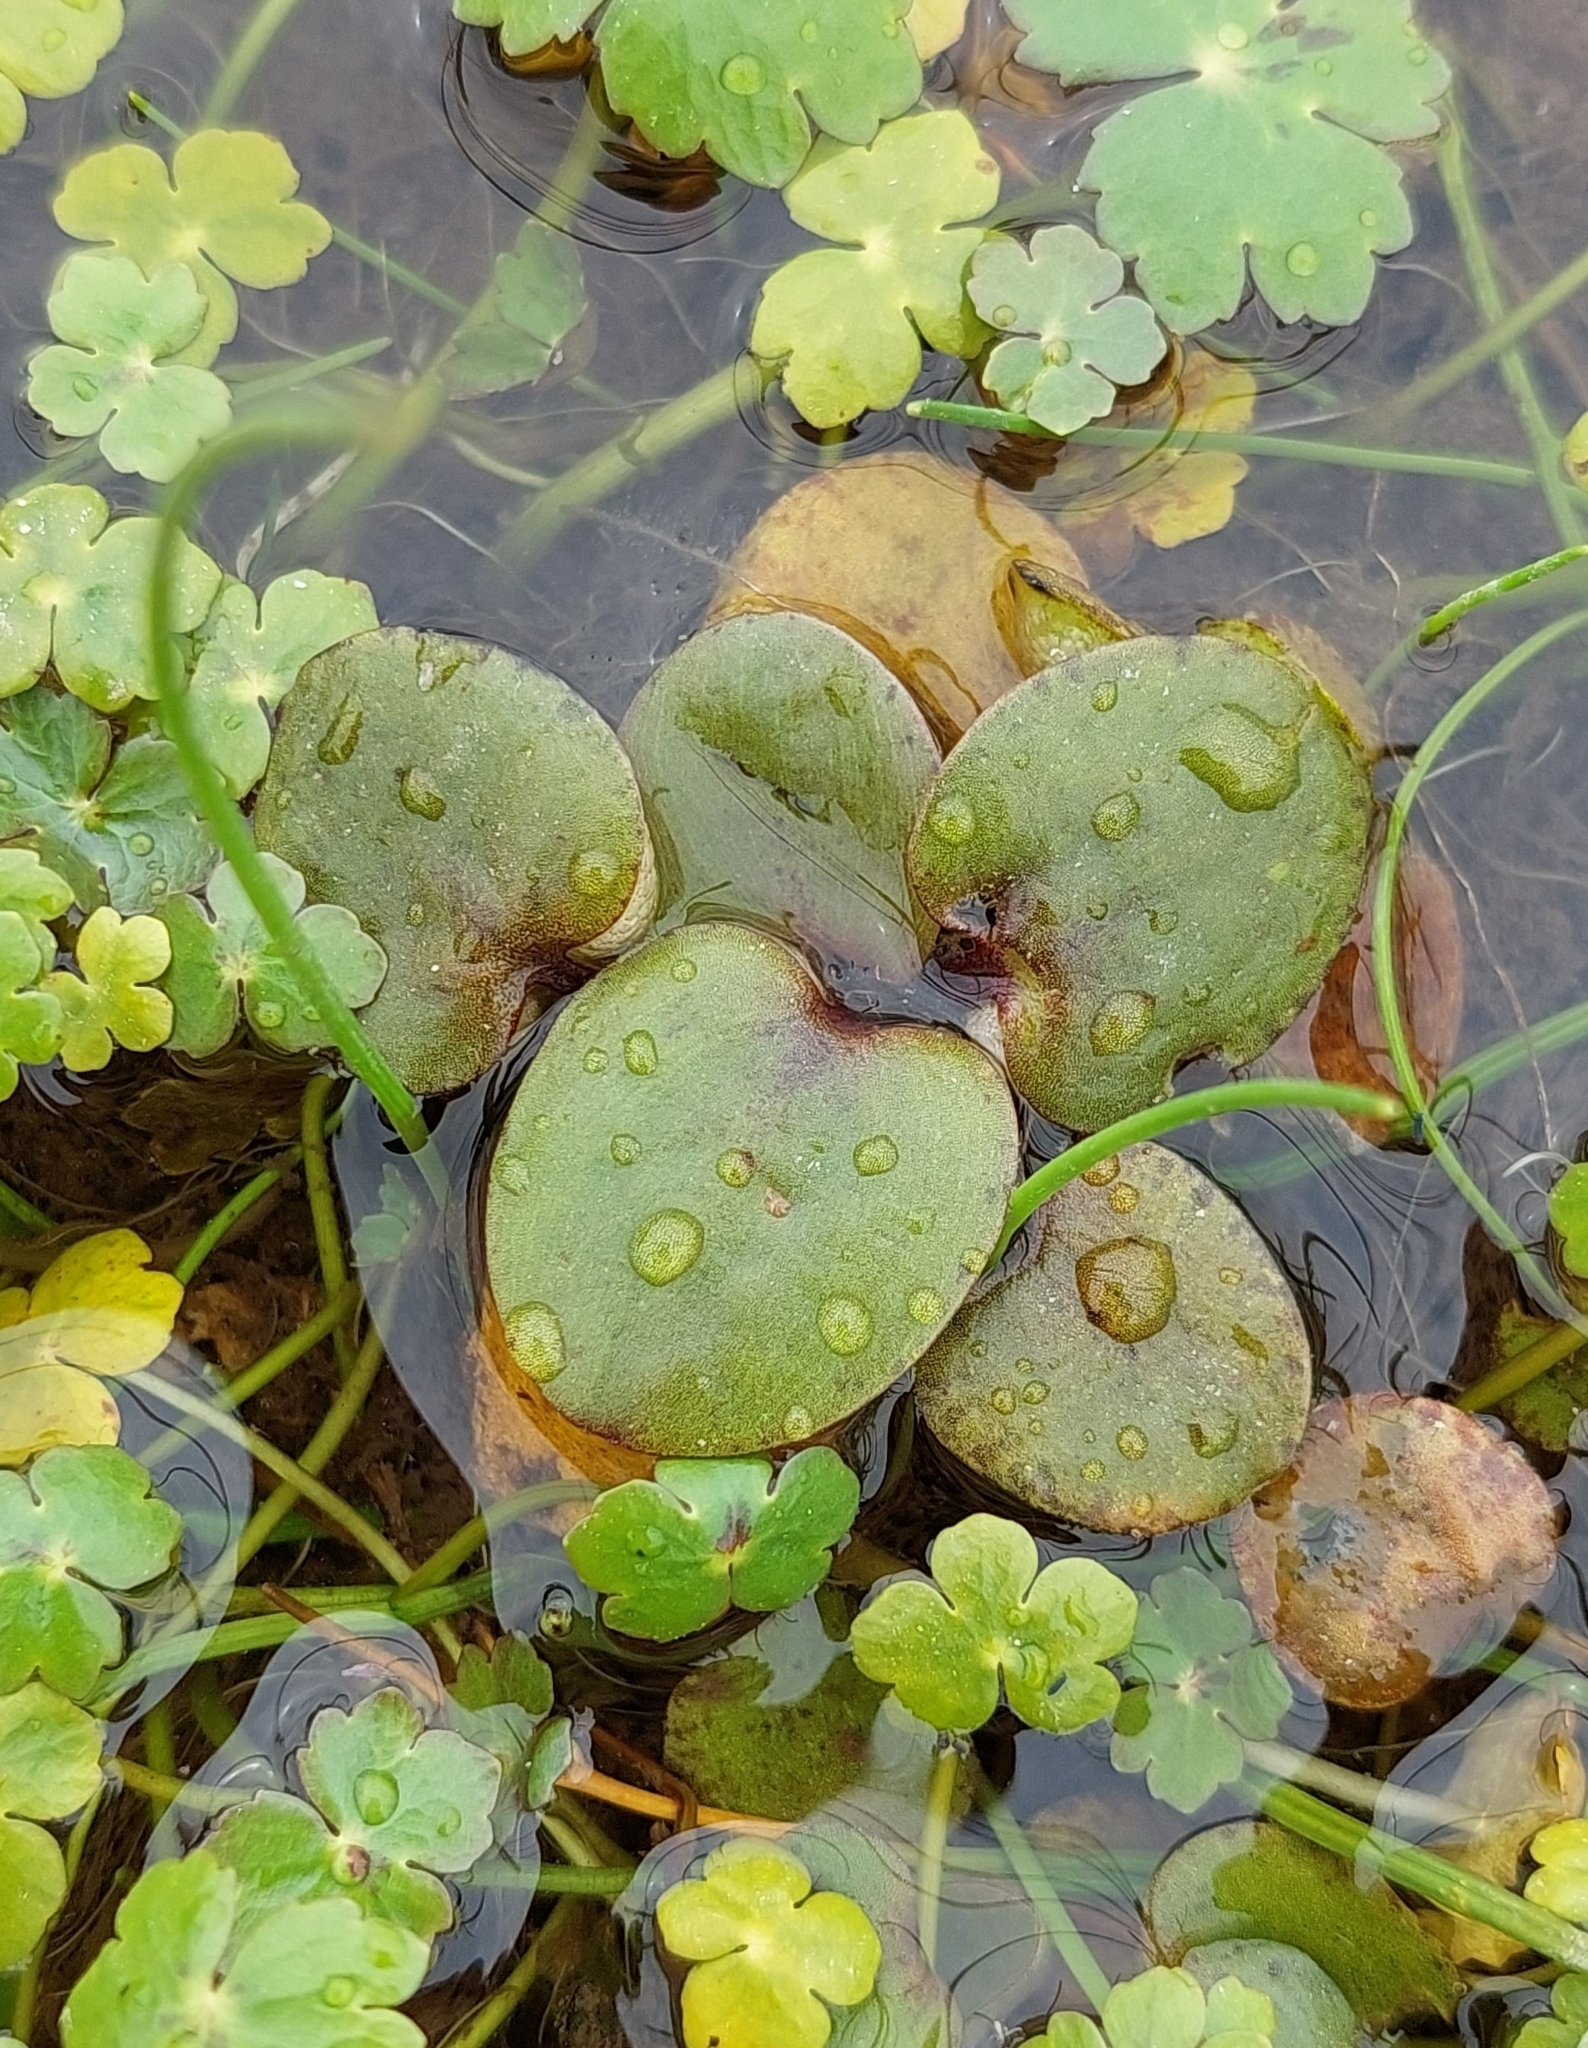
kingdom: Plantae
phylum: Tracheophyta
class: Liliopsida
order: Alismatales
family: Hydrocharitaceae
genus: Hydrocharis
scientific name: Hydrocharis laevigata
